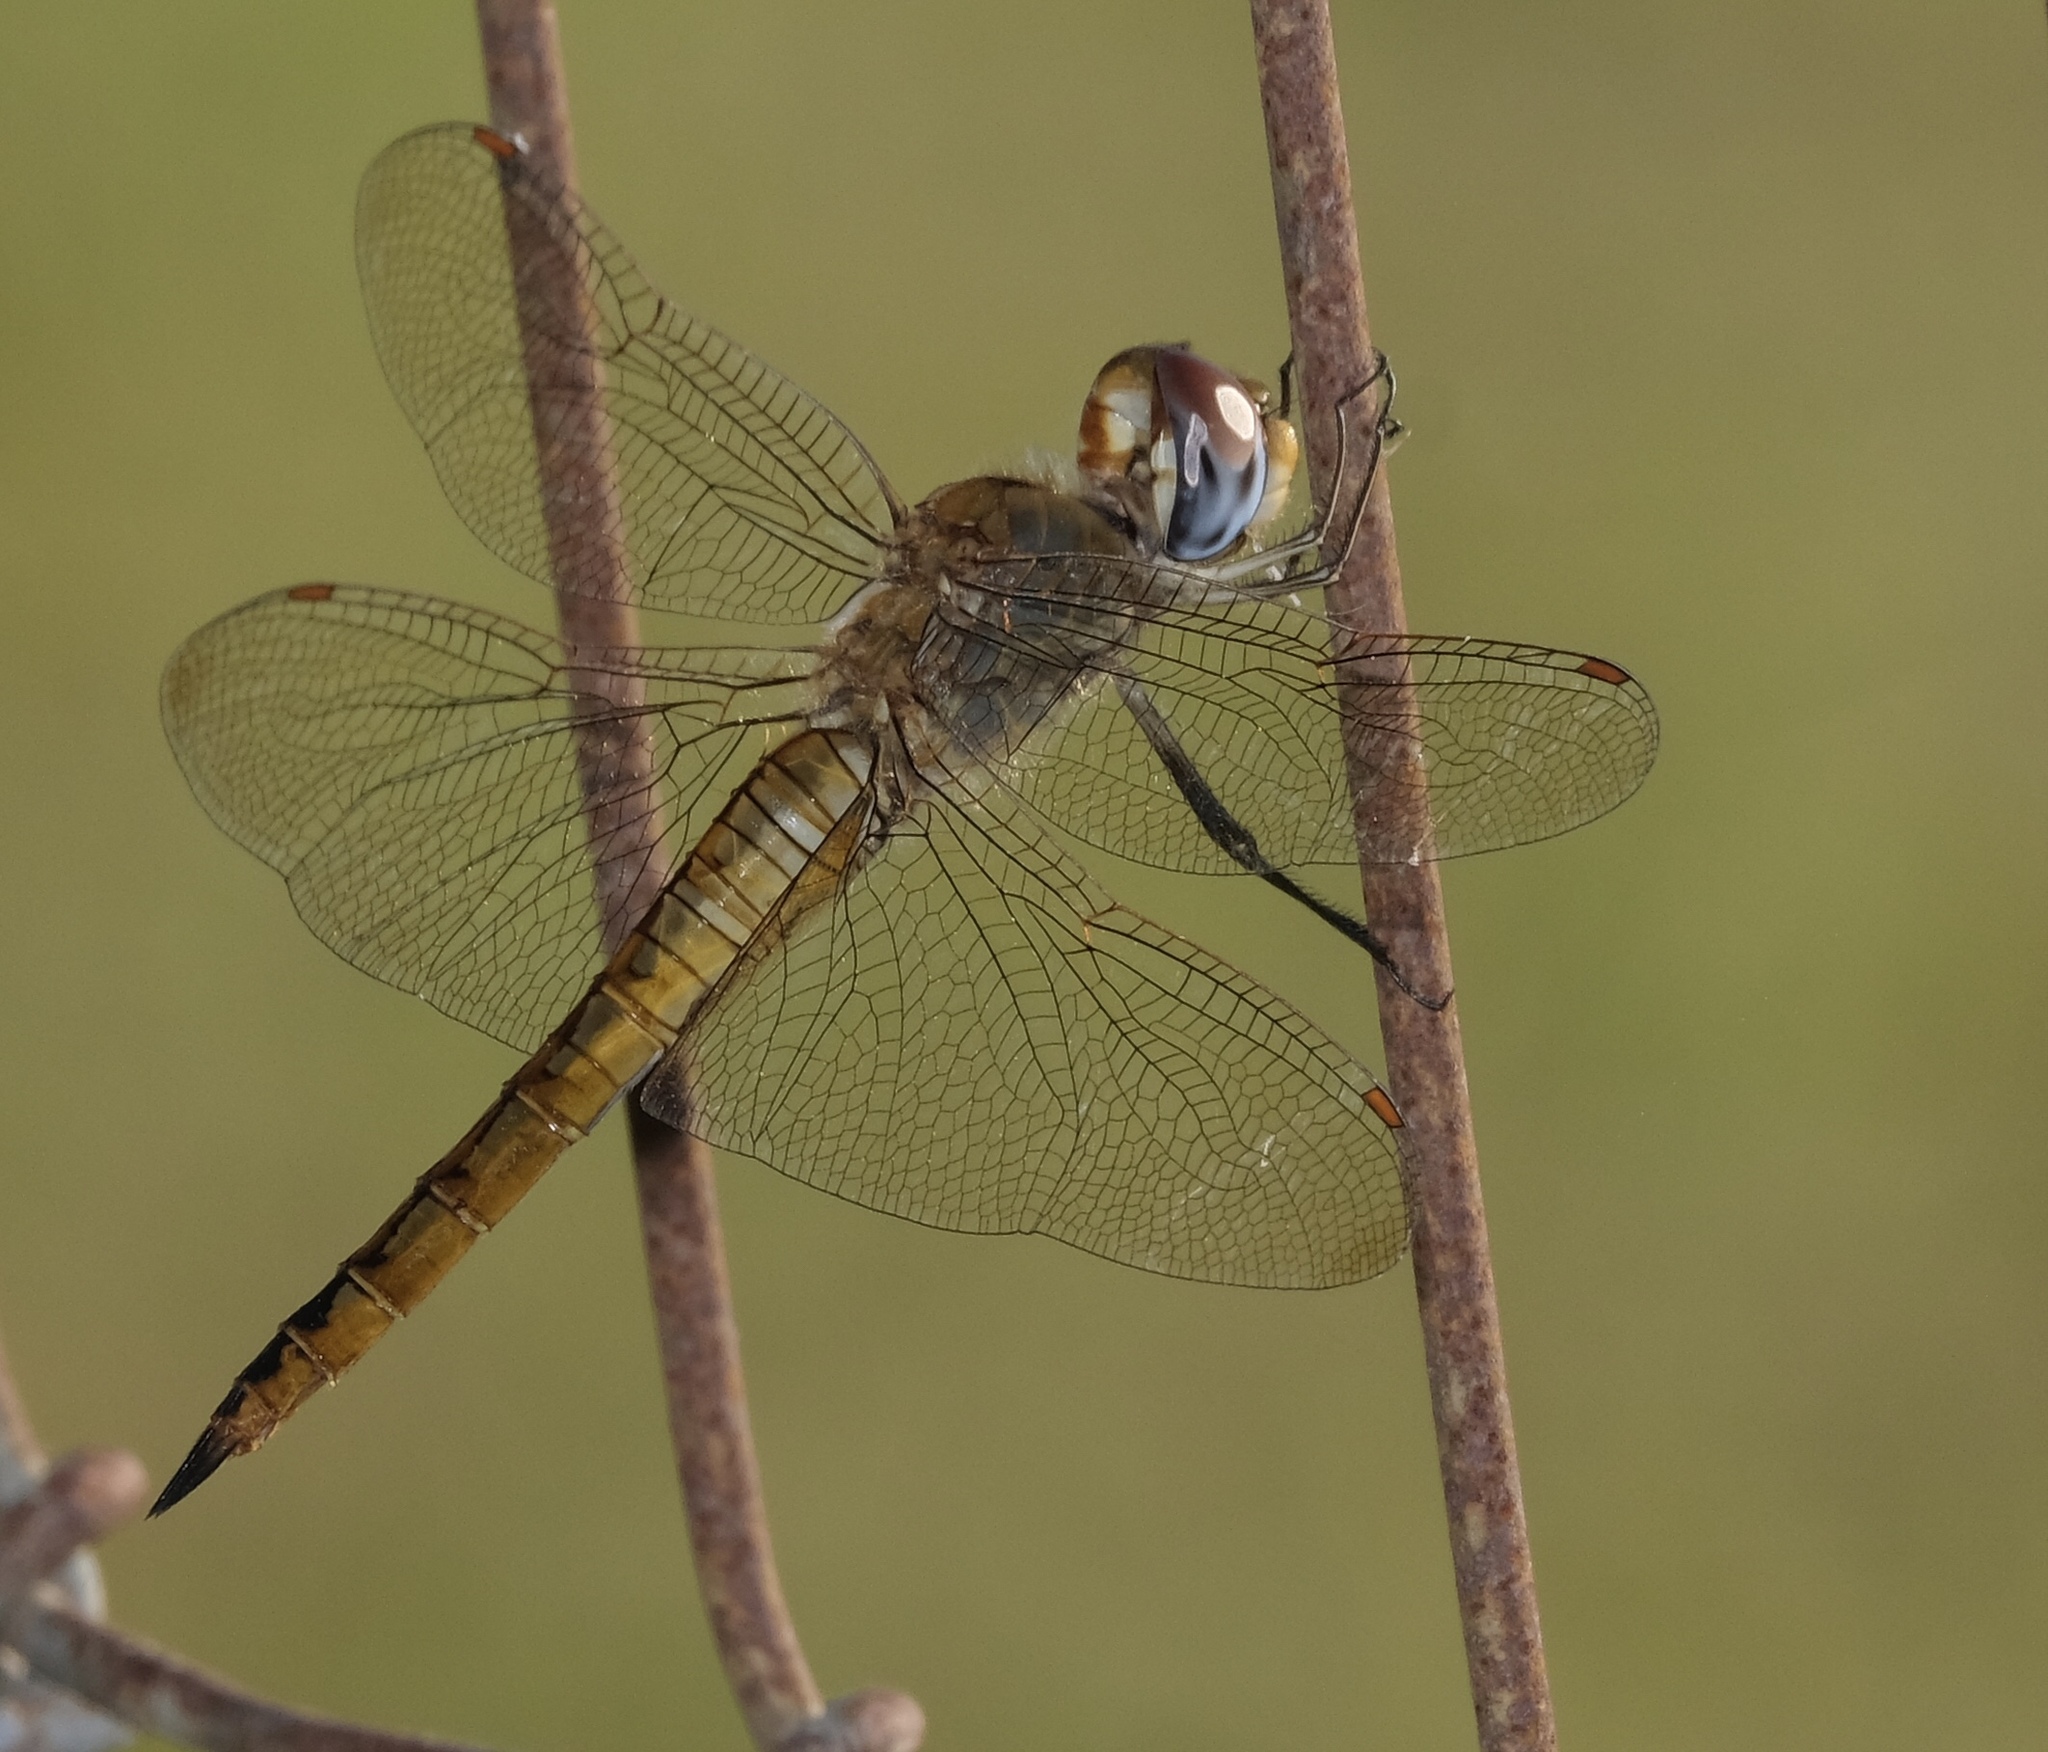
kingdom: Animalia
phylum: Arthropoda
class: Insecta
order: Odonata
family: Libellulidae
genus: Pantala
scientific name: Pantala flavescens
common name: Wandering glider
